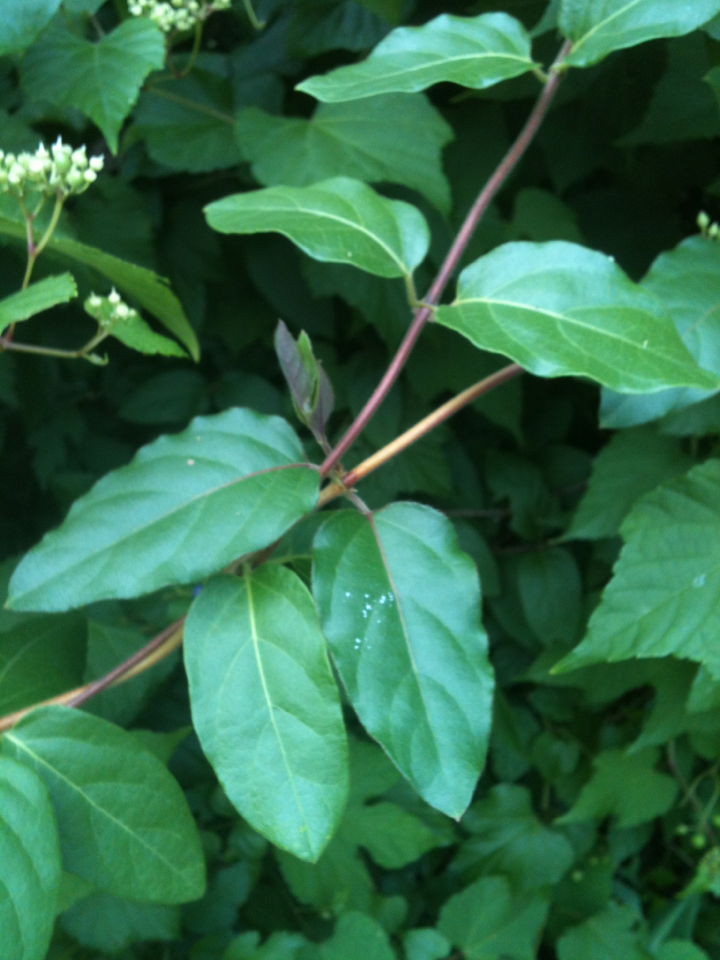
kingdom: Plantae
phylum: Tracheophyta
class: Magnoliopsida
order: Dipsacales
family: Caprifoliaceae
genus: Lonicera
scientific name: Lonicera japonica
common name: Japanese honeysuckle
